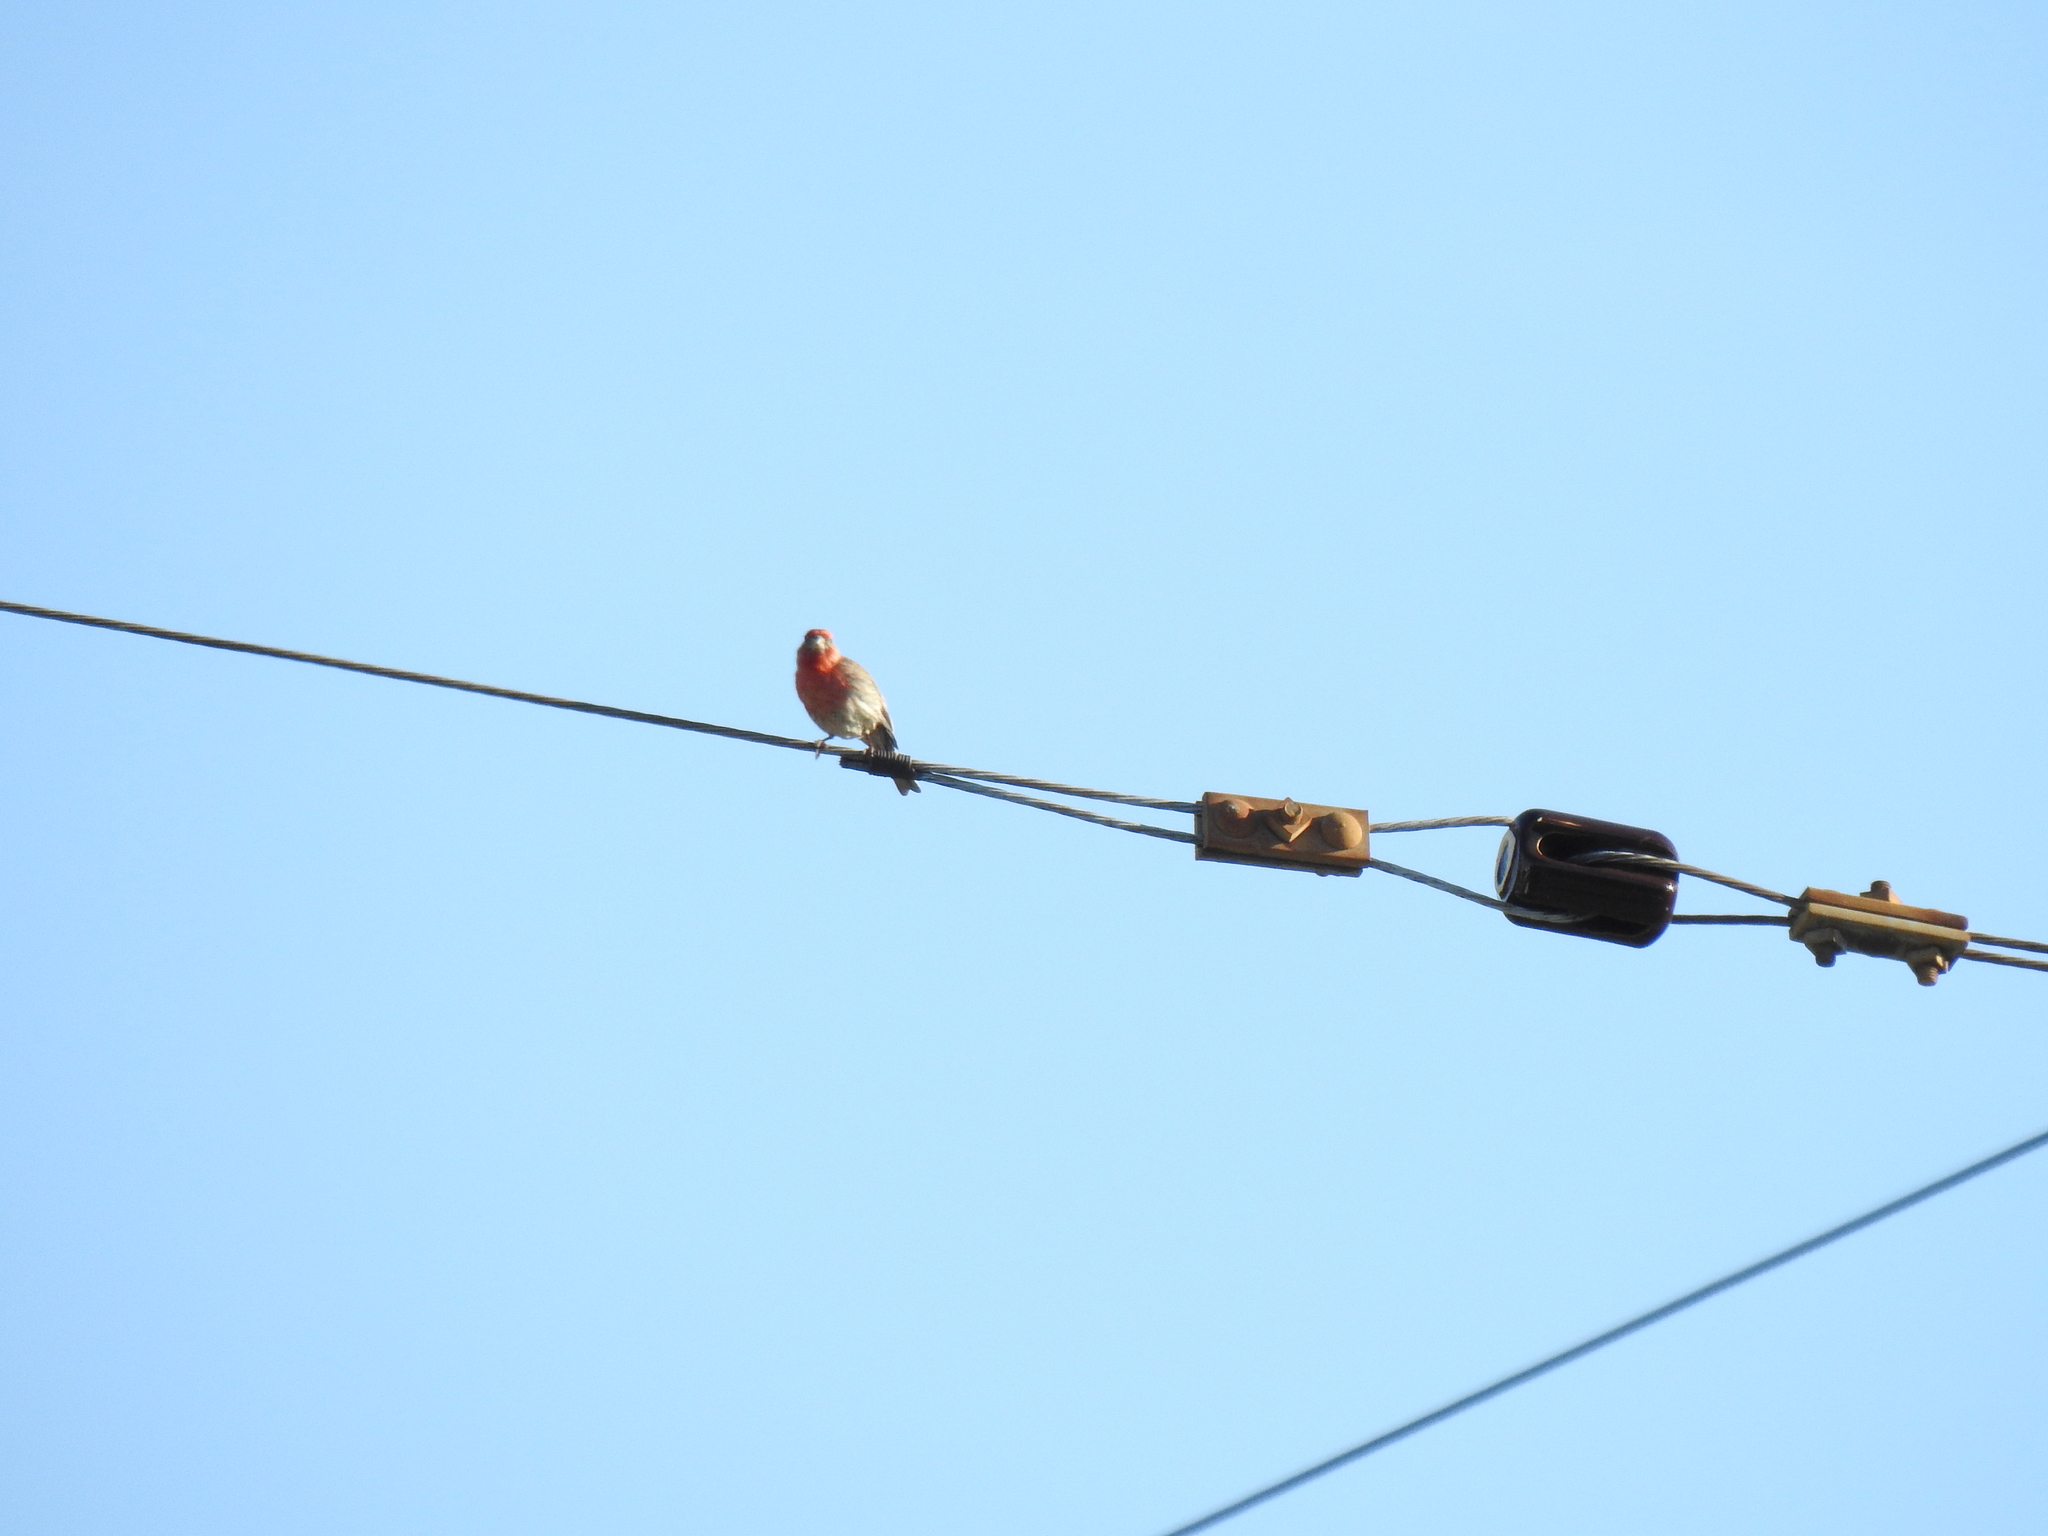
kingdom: Animalia
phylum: Chordata
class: Aves
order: Passeriformes
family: Fringillidae
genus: Haemorhous
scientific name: Haemorhous mexicanus
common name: House finch
